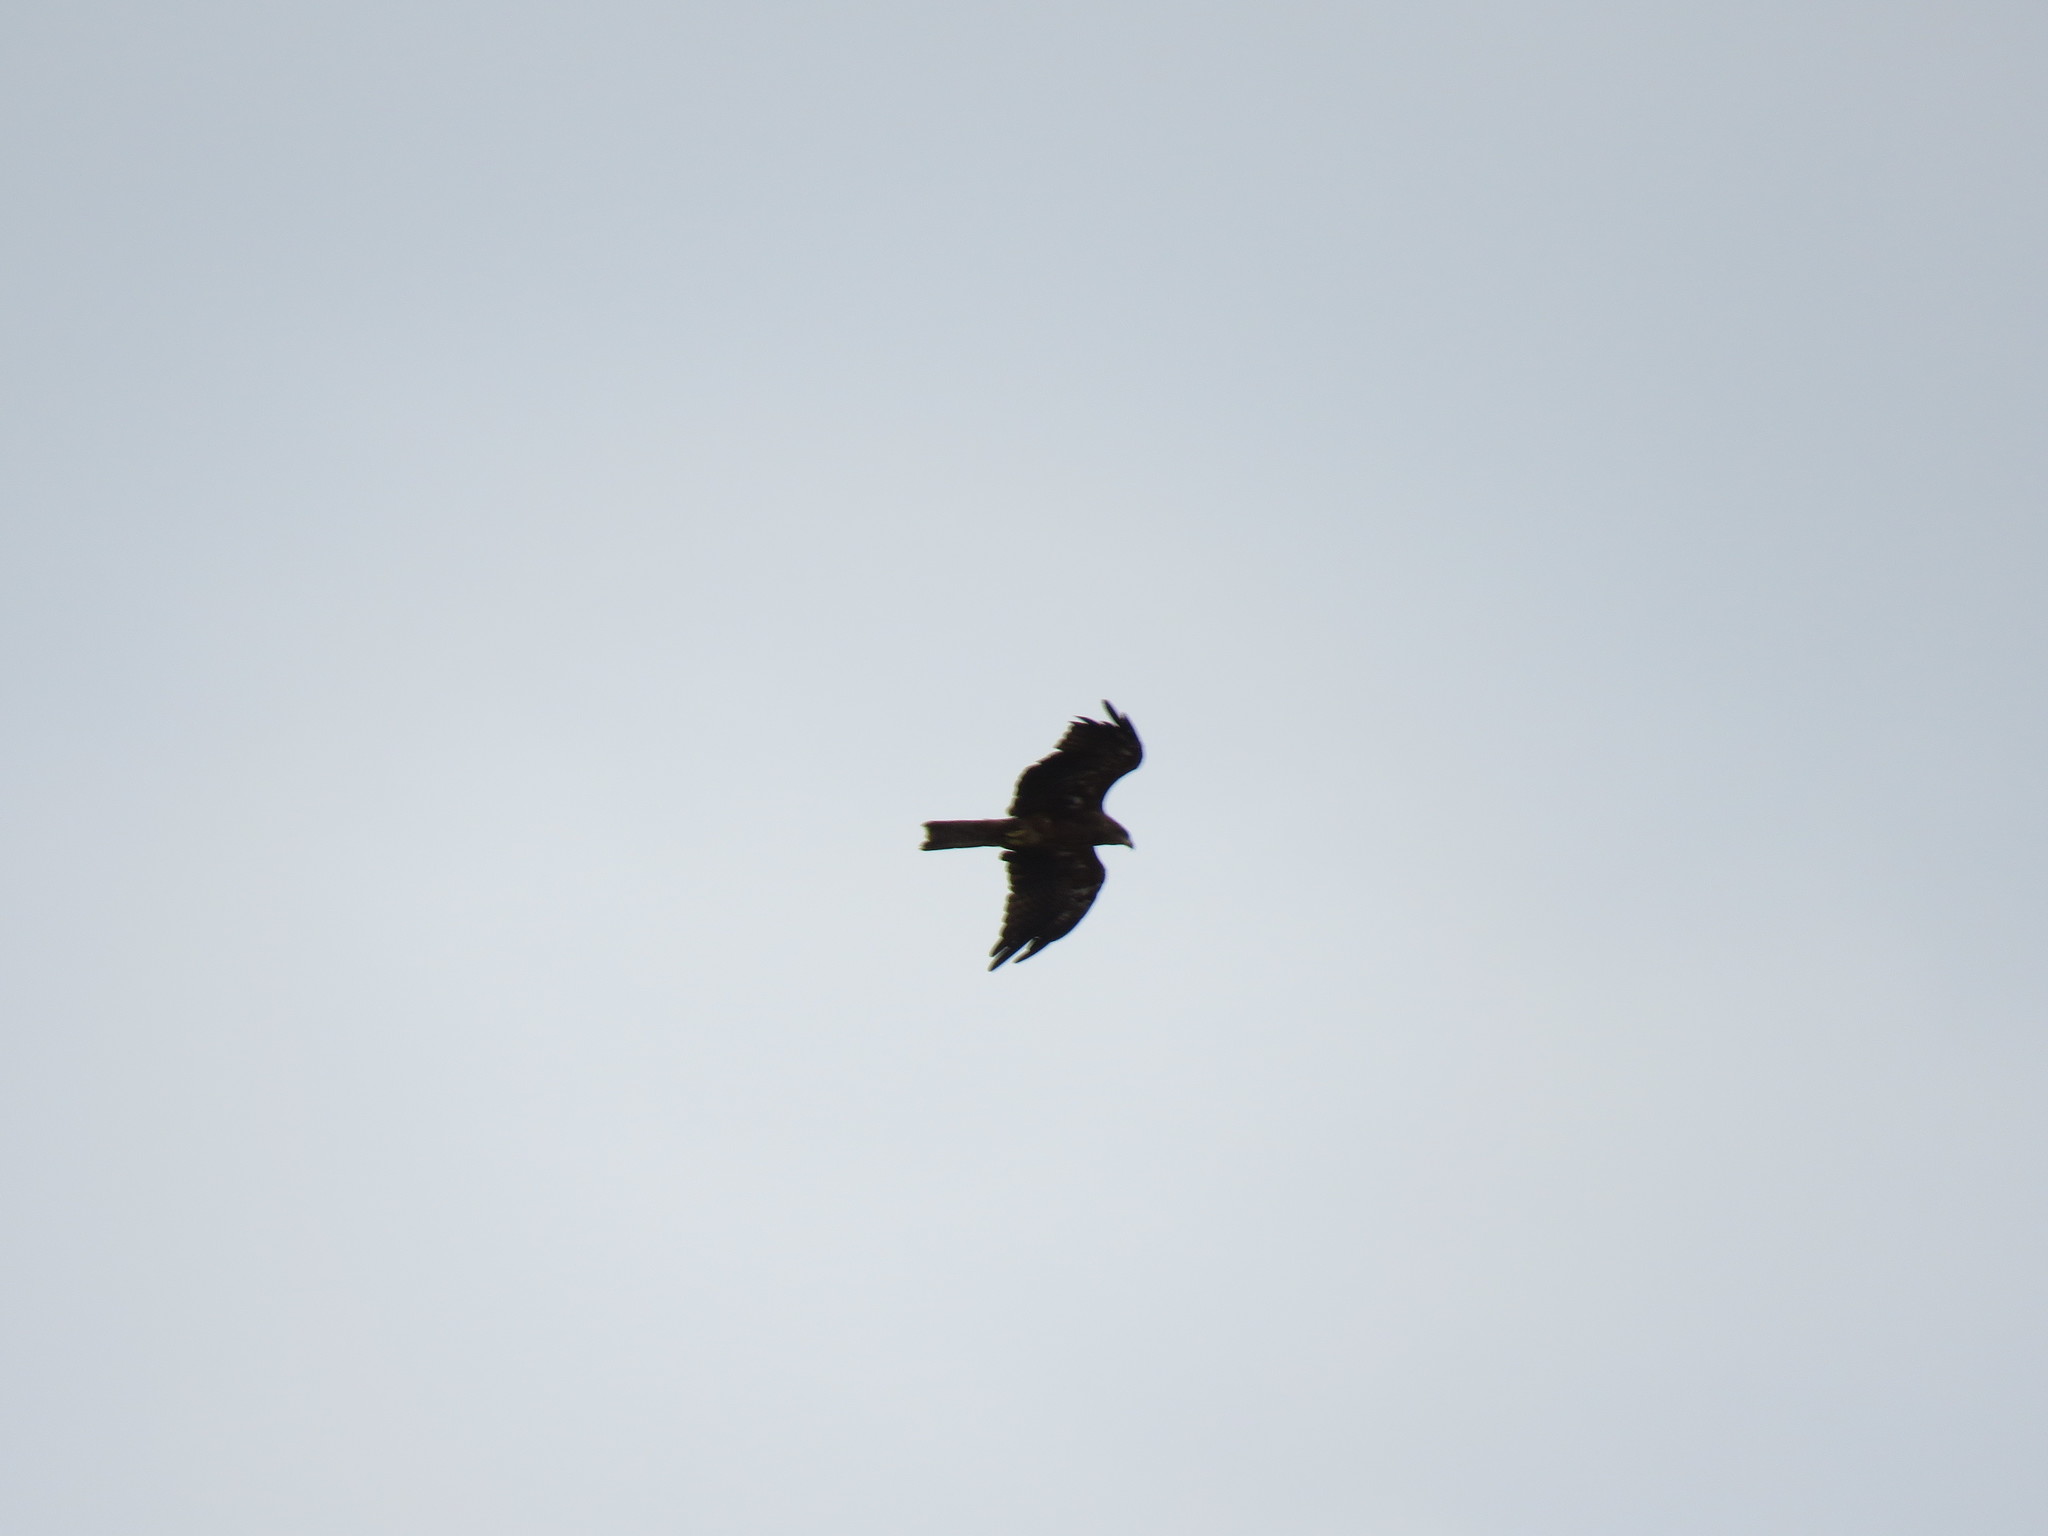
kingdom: Animalia
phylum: Chordata
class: Aves
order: Accipitriformes
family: Accipitridae
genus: Milvus
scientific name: Milvus migrans
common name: Black kite
